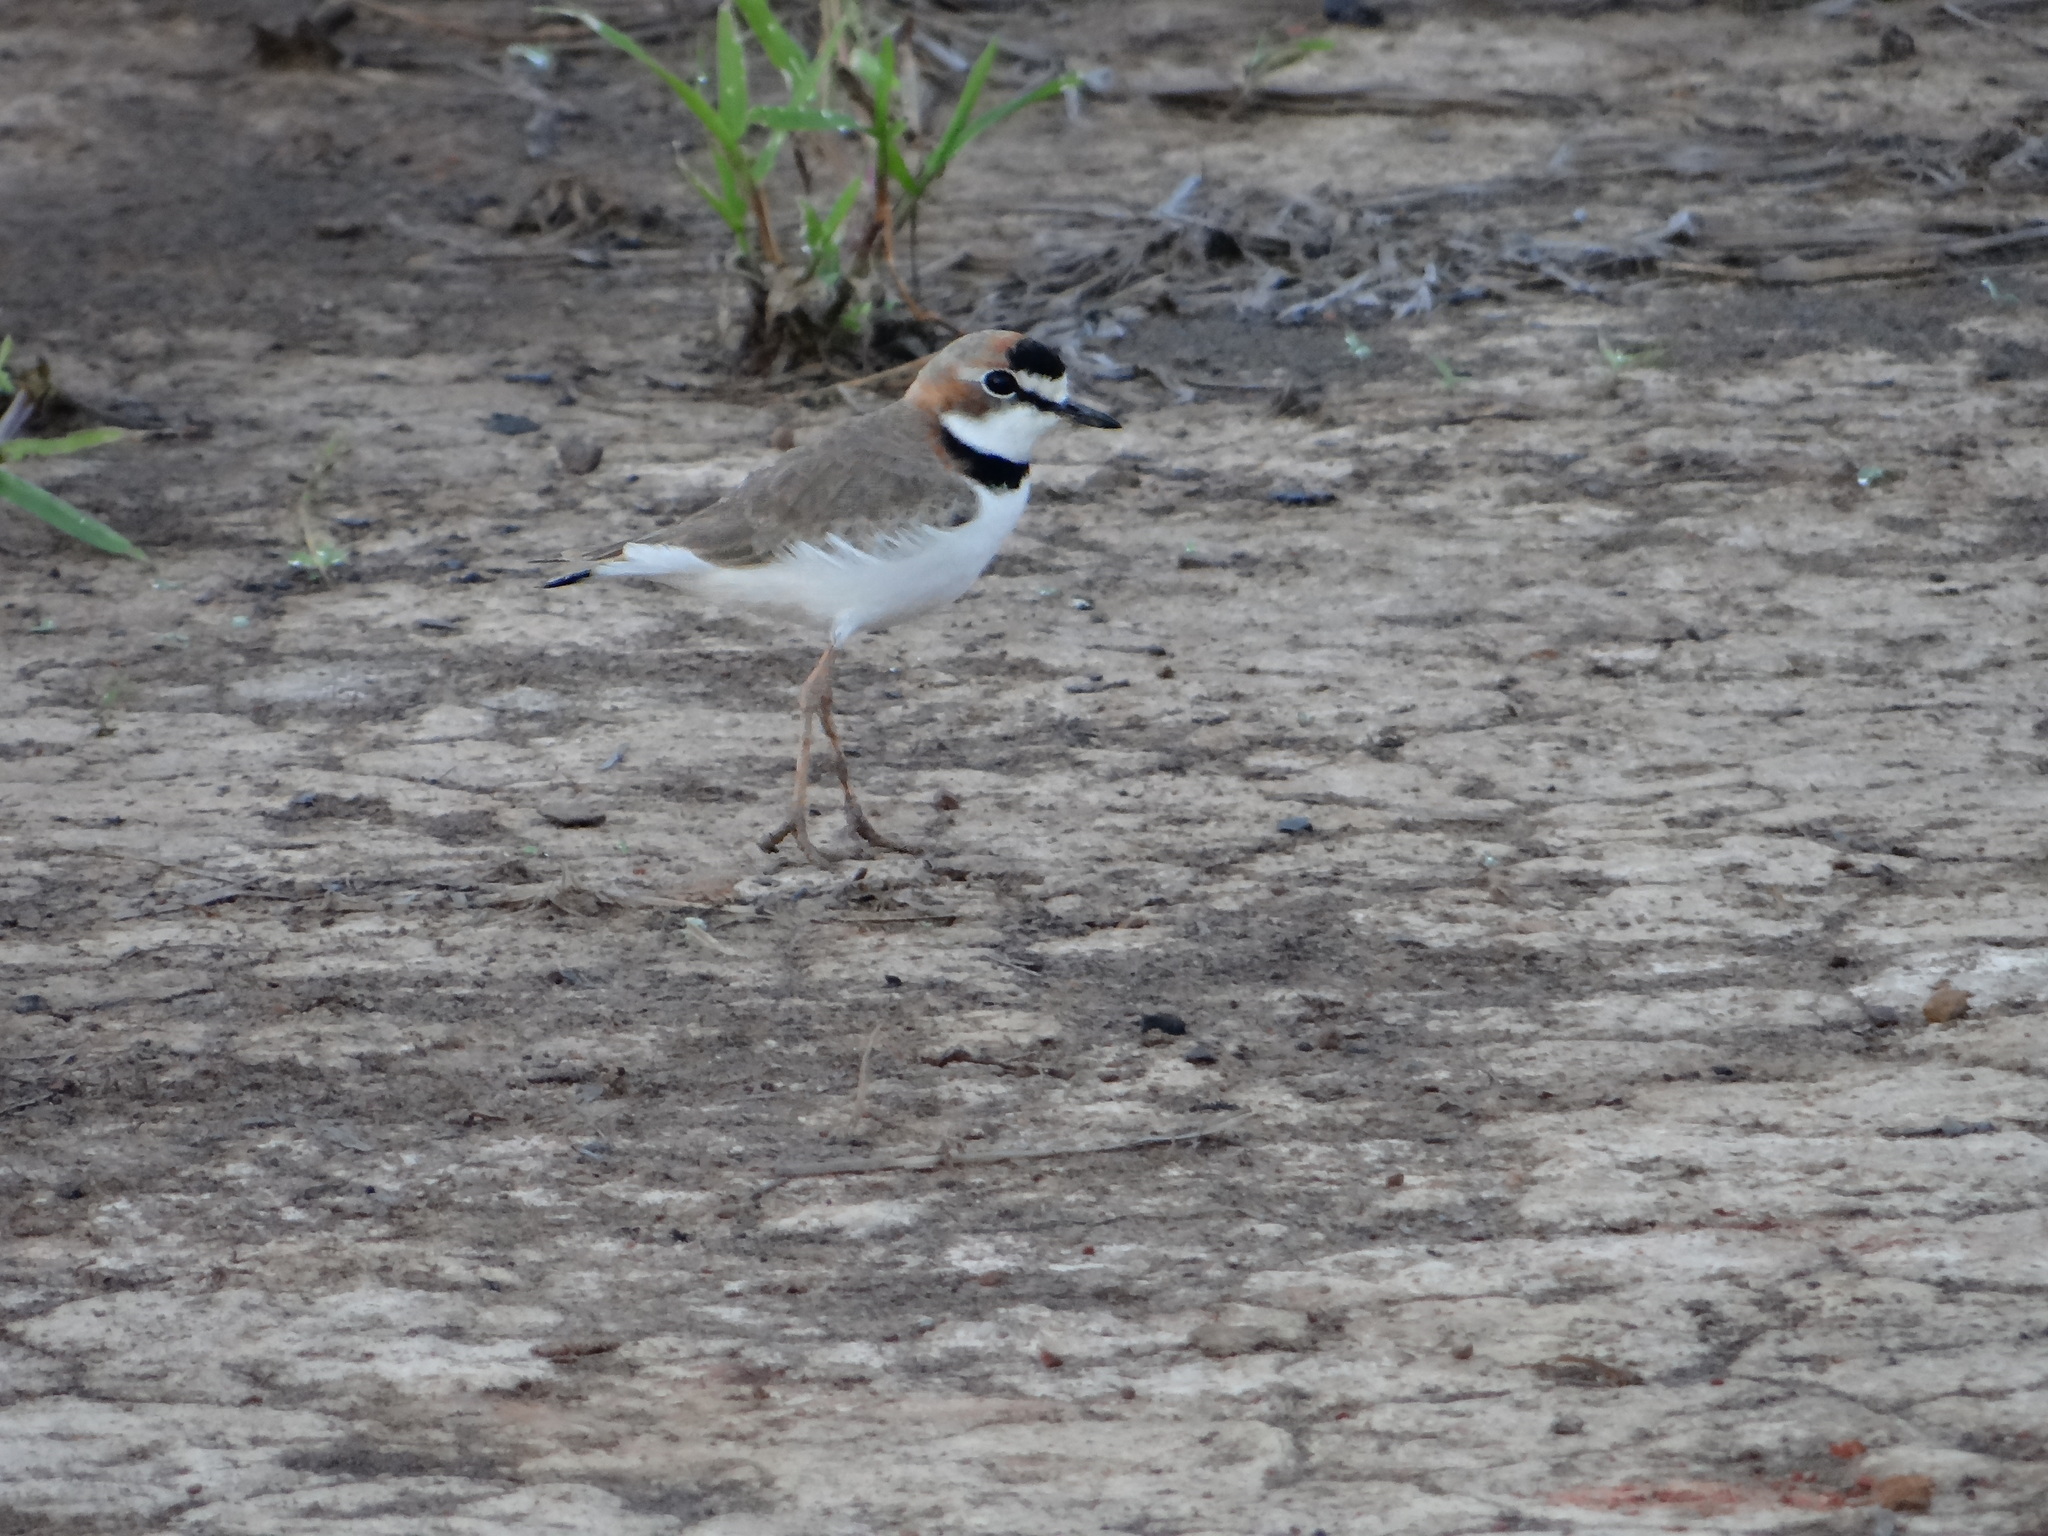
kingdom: Animalia
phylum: Chordata
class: Aves
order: Charadriiformes
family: Charadriidae
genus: Anarhynchus
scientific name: Anarhynchus
